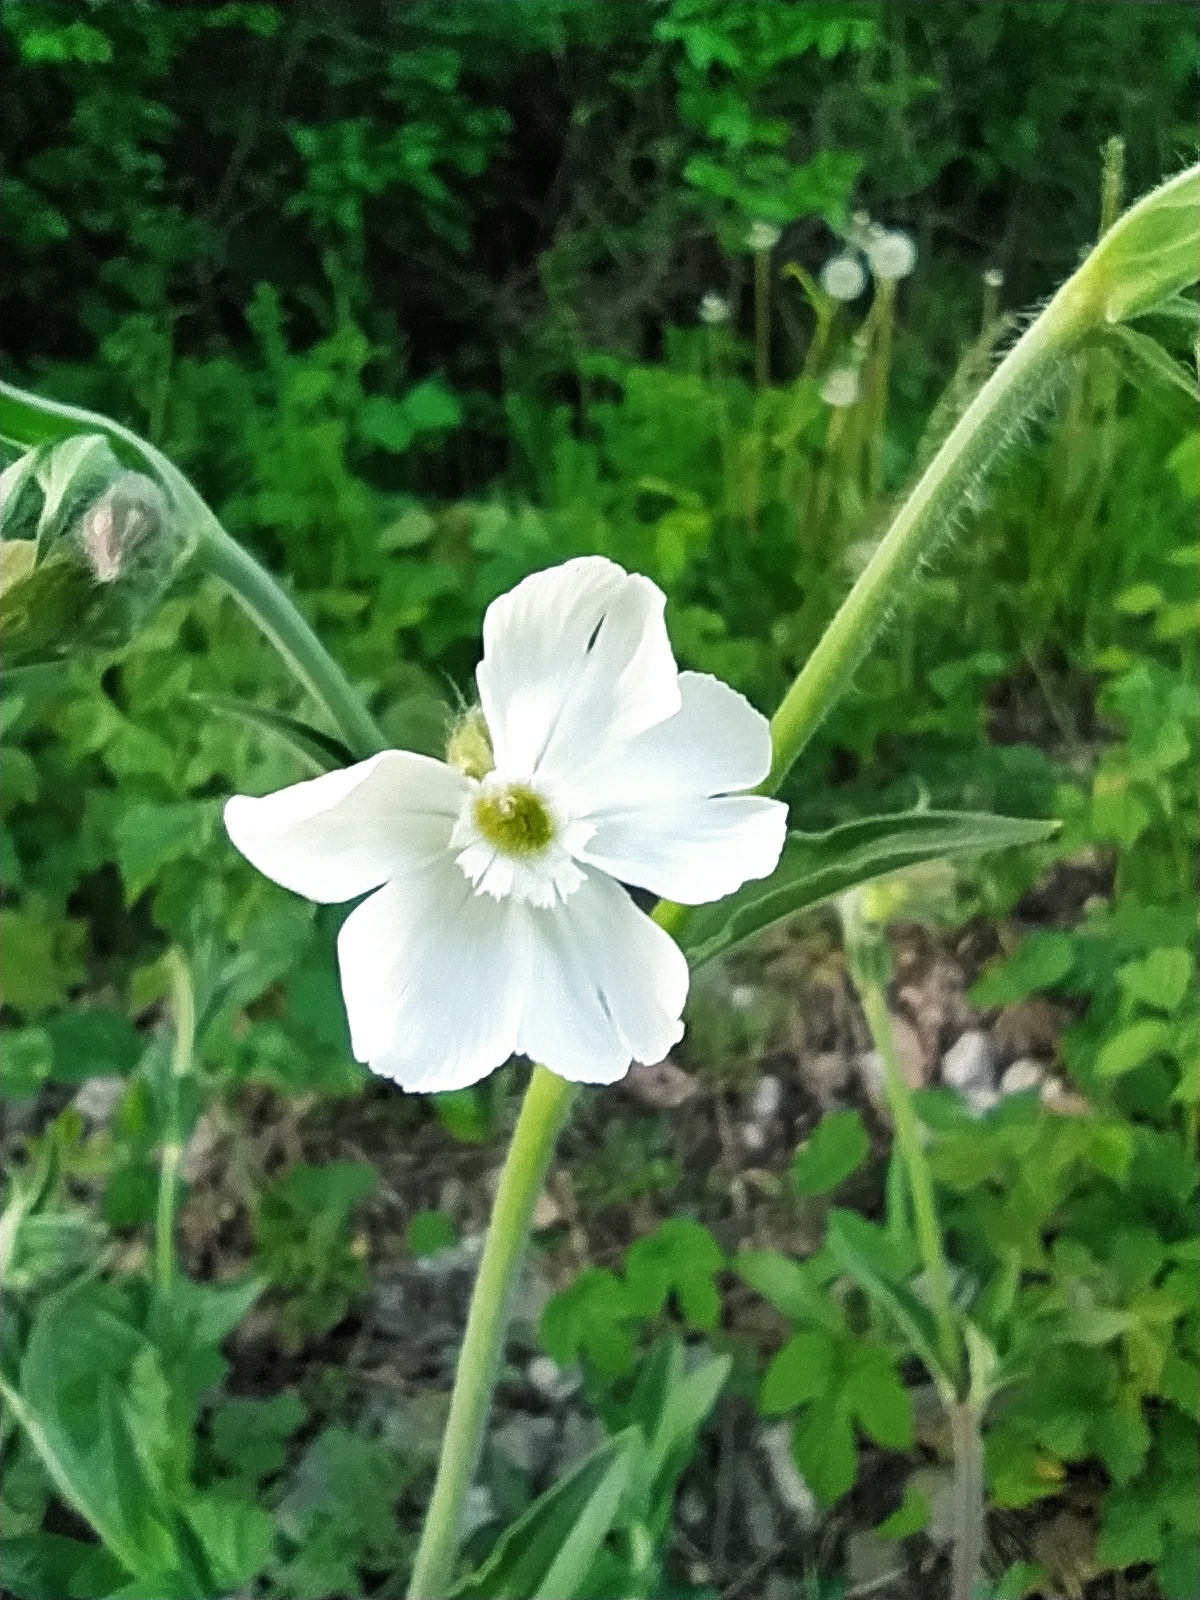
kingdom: Plantae
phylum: Tracheophyta
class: Magnoliopsida
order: Caryophyllales
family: Caryophyllaceae
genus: Silene
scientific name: Silene latifolia
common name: White campion
